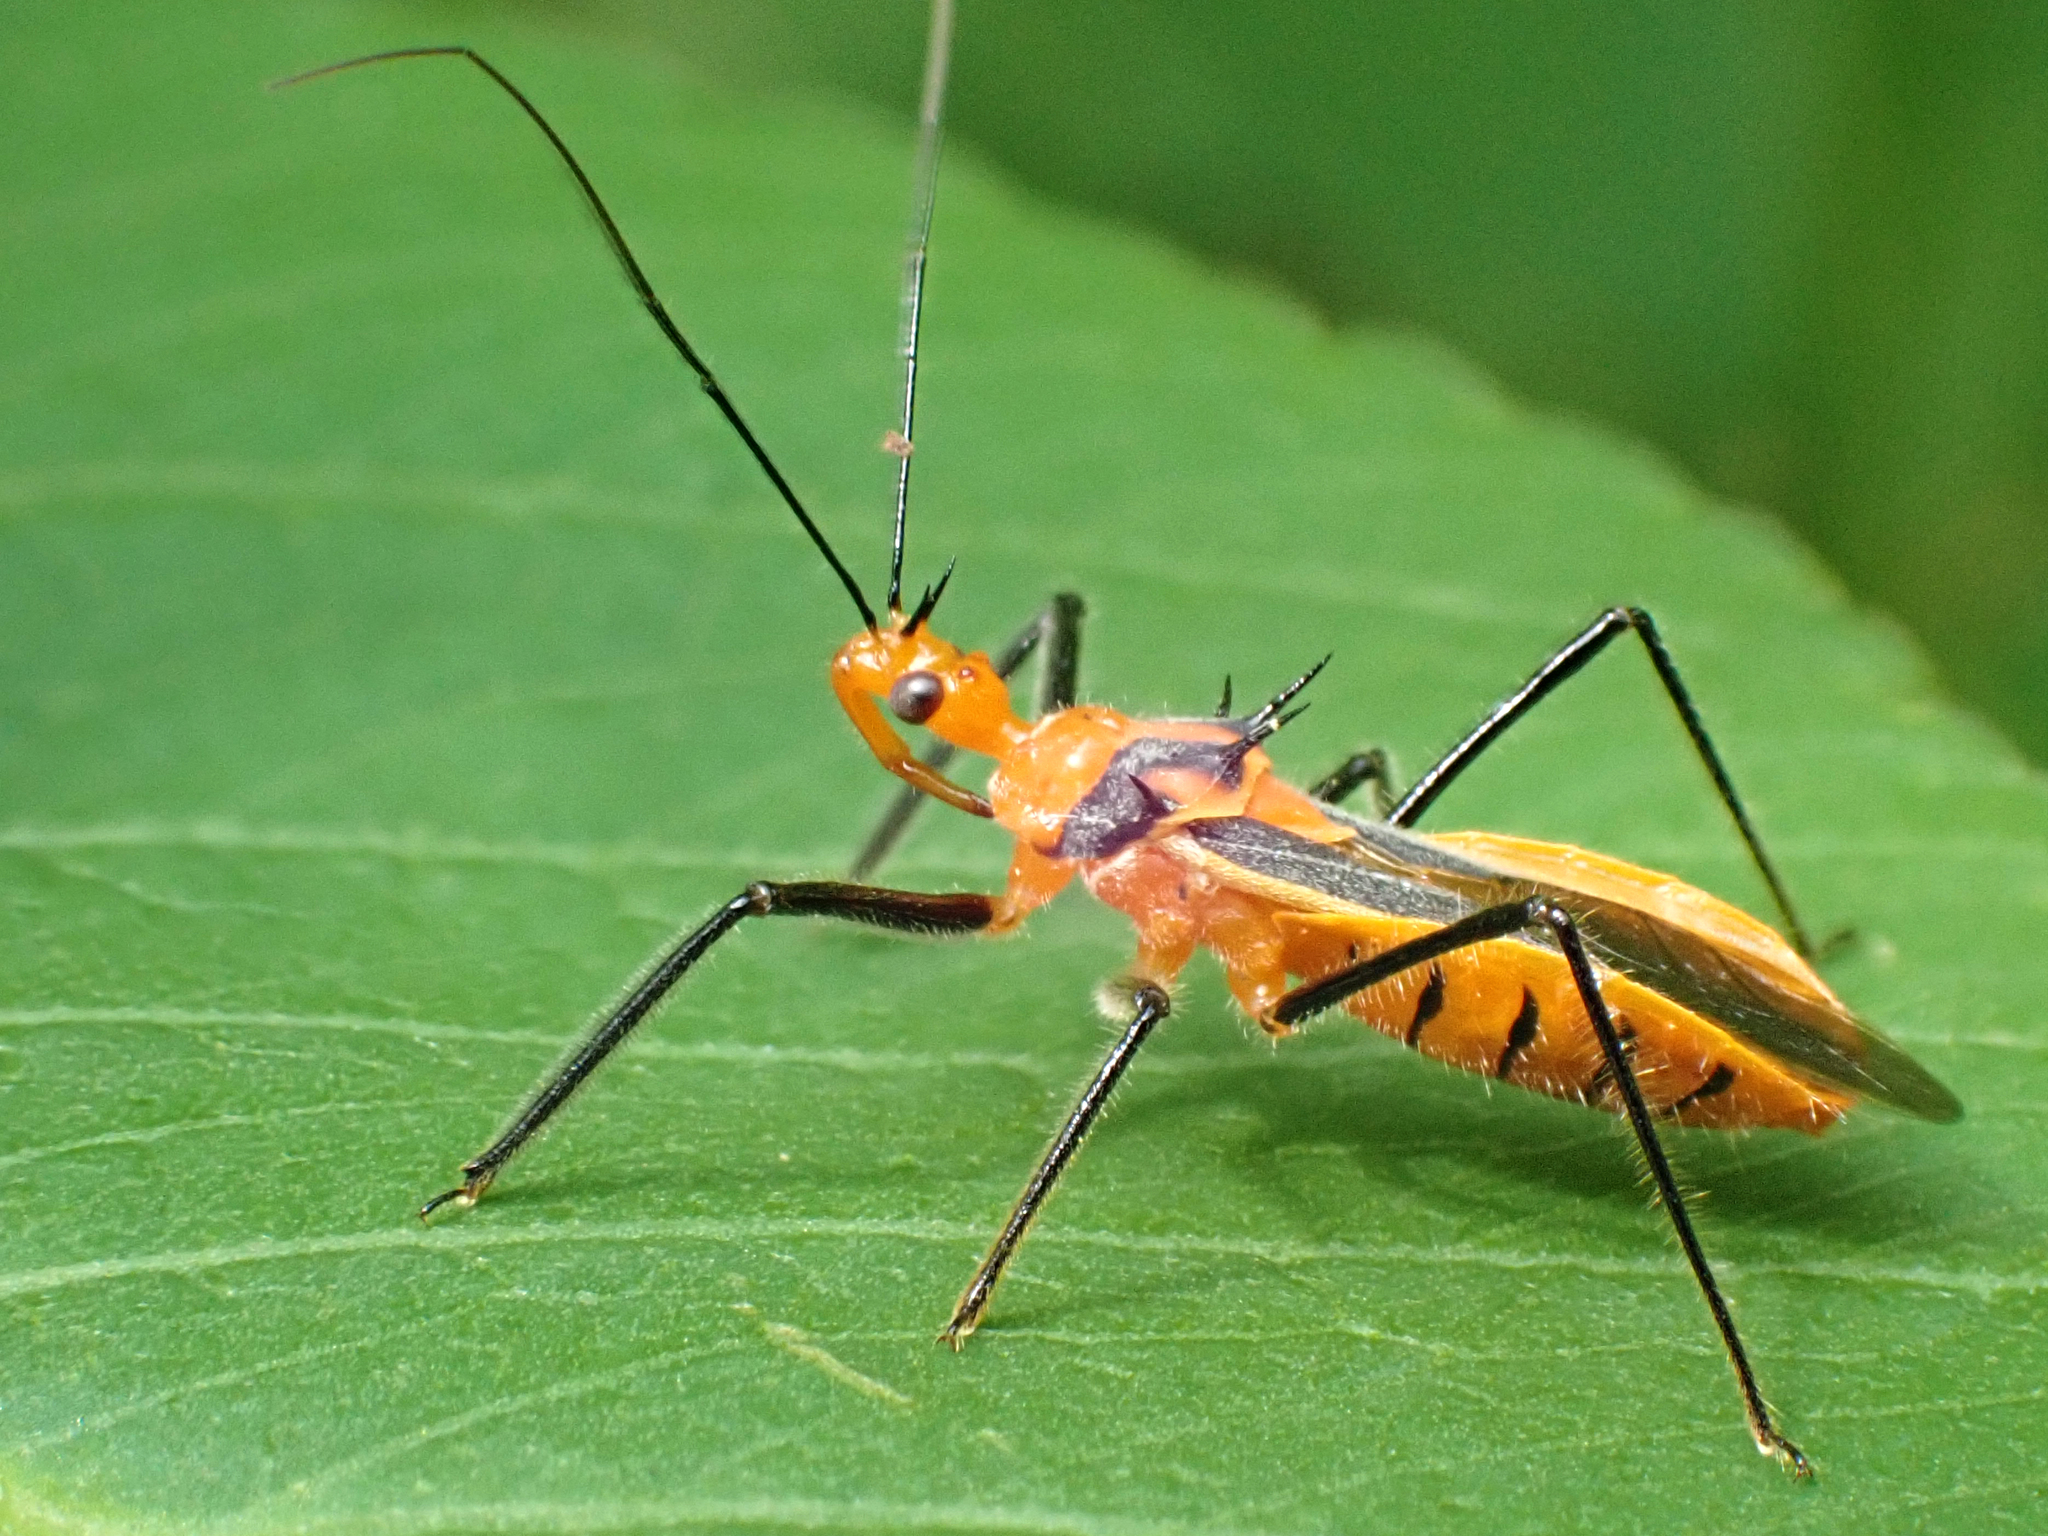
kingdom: Animalia
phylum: Arthropoda
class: Insecta
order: Hemiptera
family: Reduviidae
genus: Repipta
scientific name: Repipta taurus
